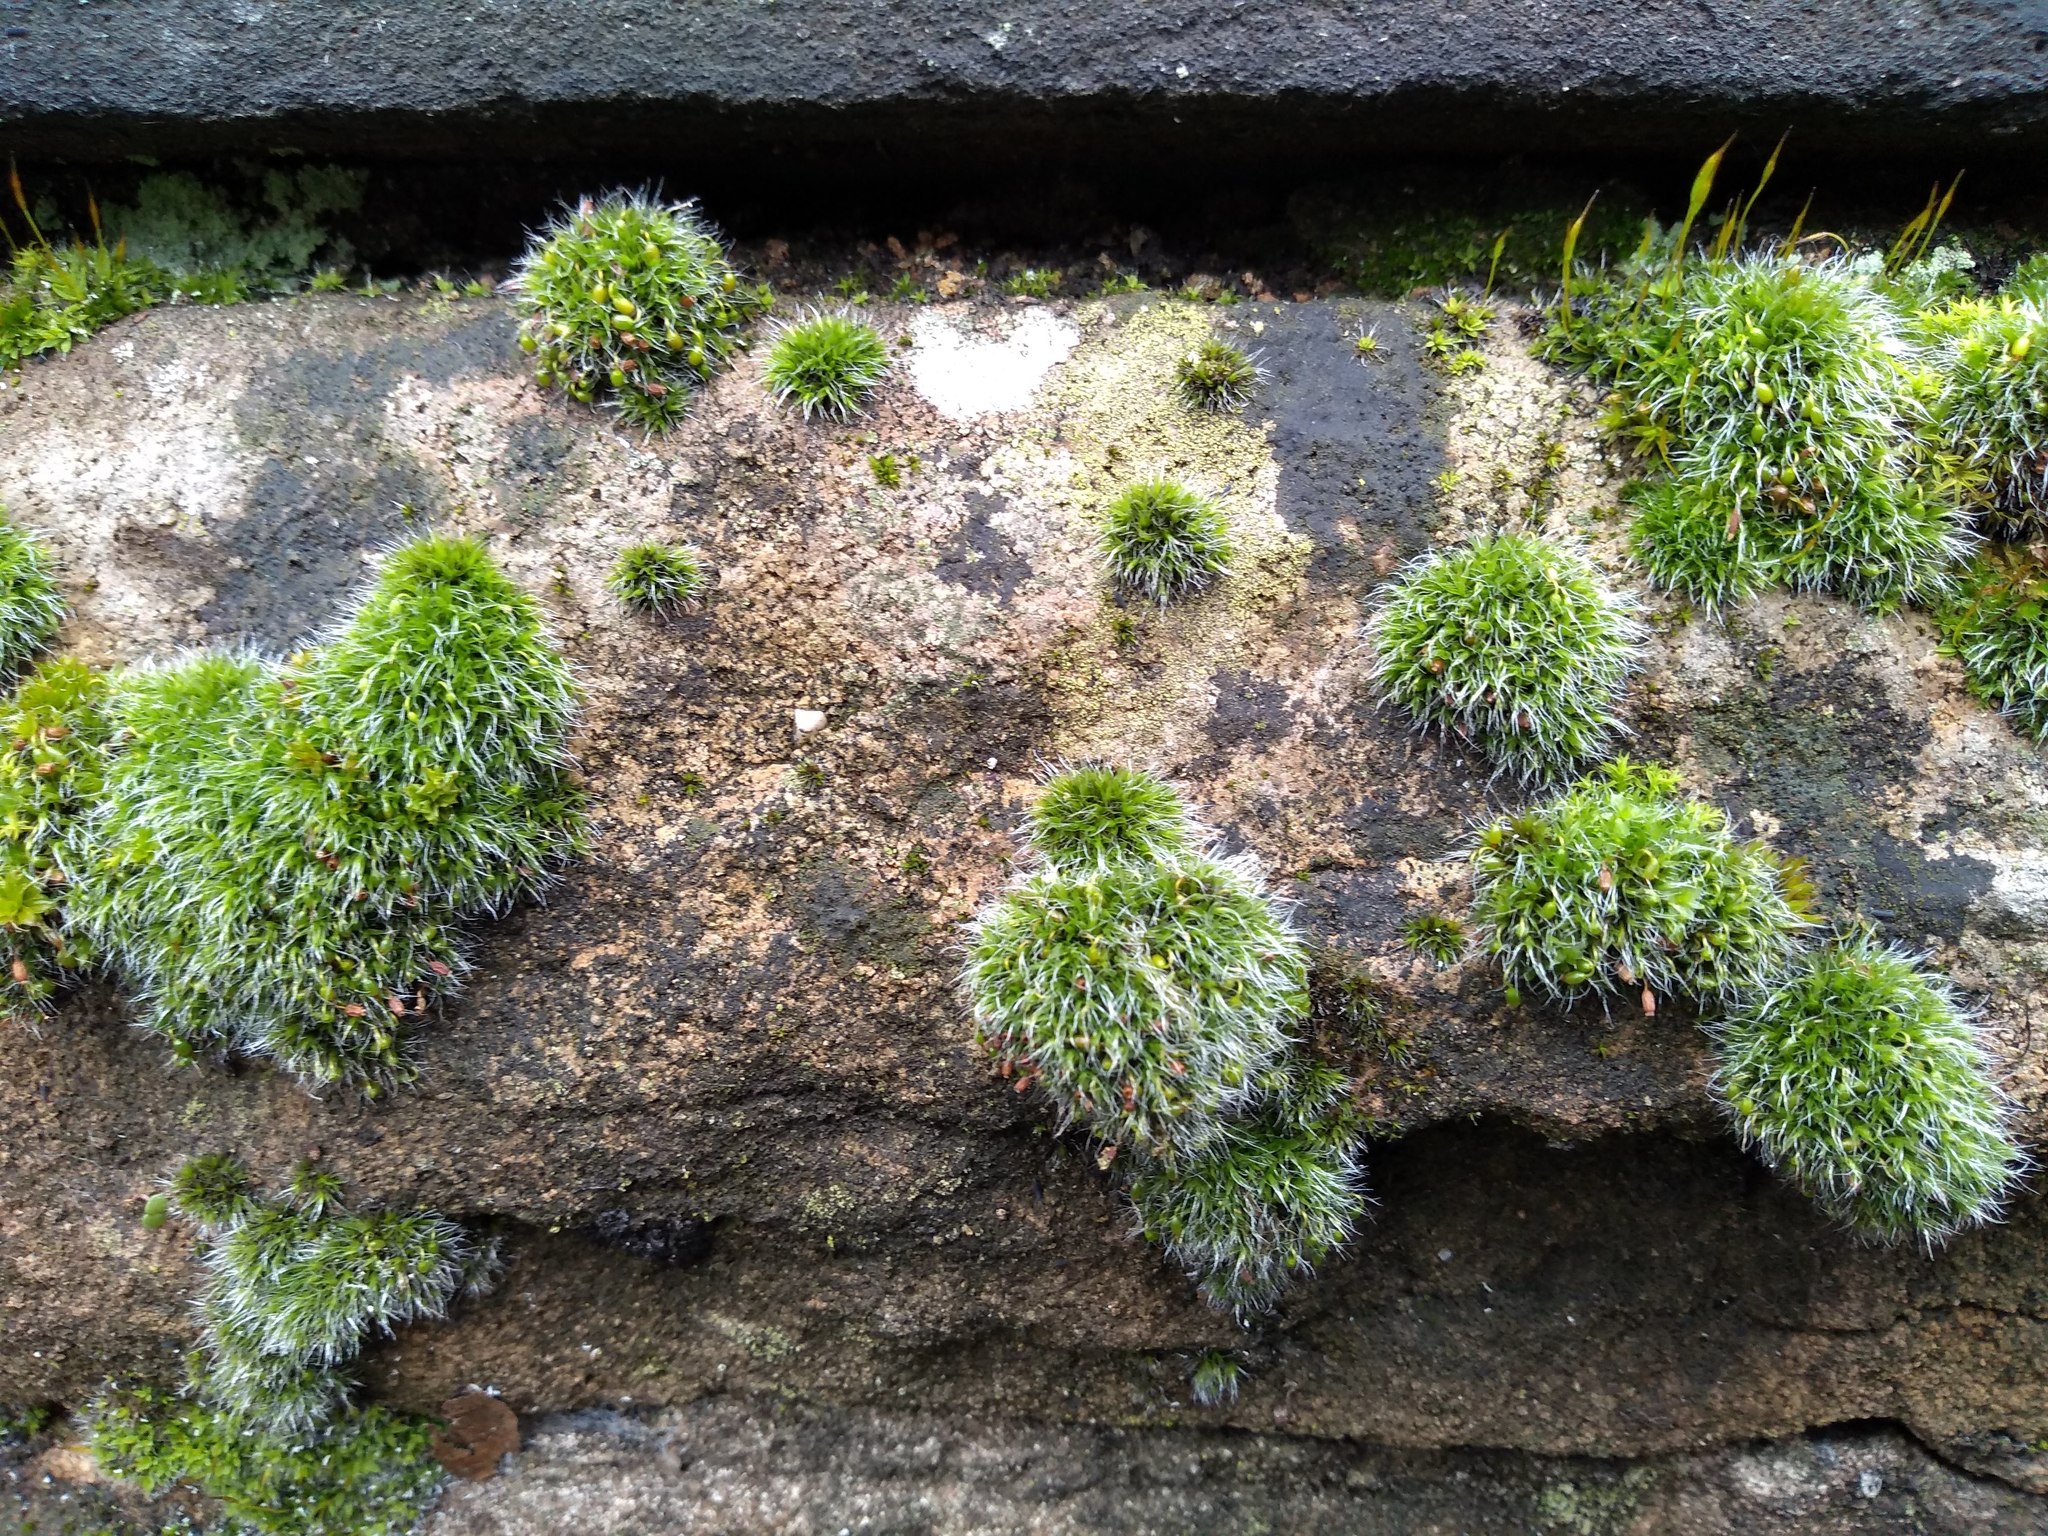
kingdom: Plantae
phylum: Bryophyta
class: Bryopsida
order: Grimmiales
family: Grimmiaceae
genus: Grimmia
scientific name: Grimmia pulvinata
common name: Grey-cushioned grimmia
